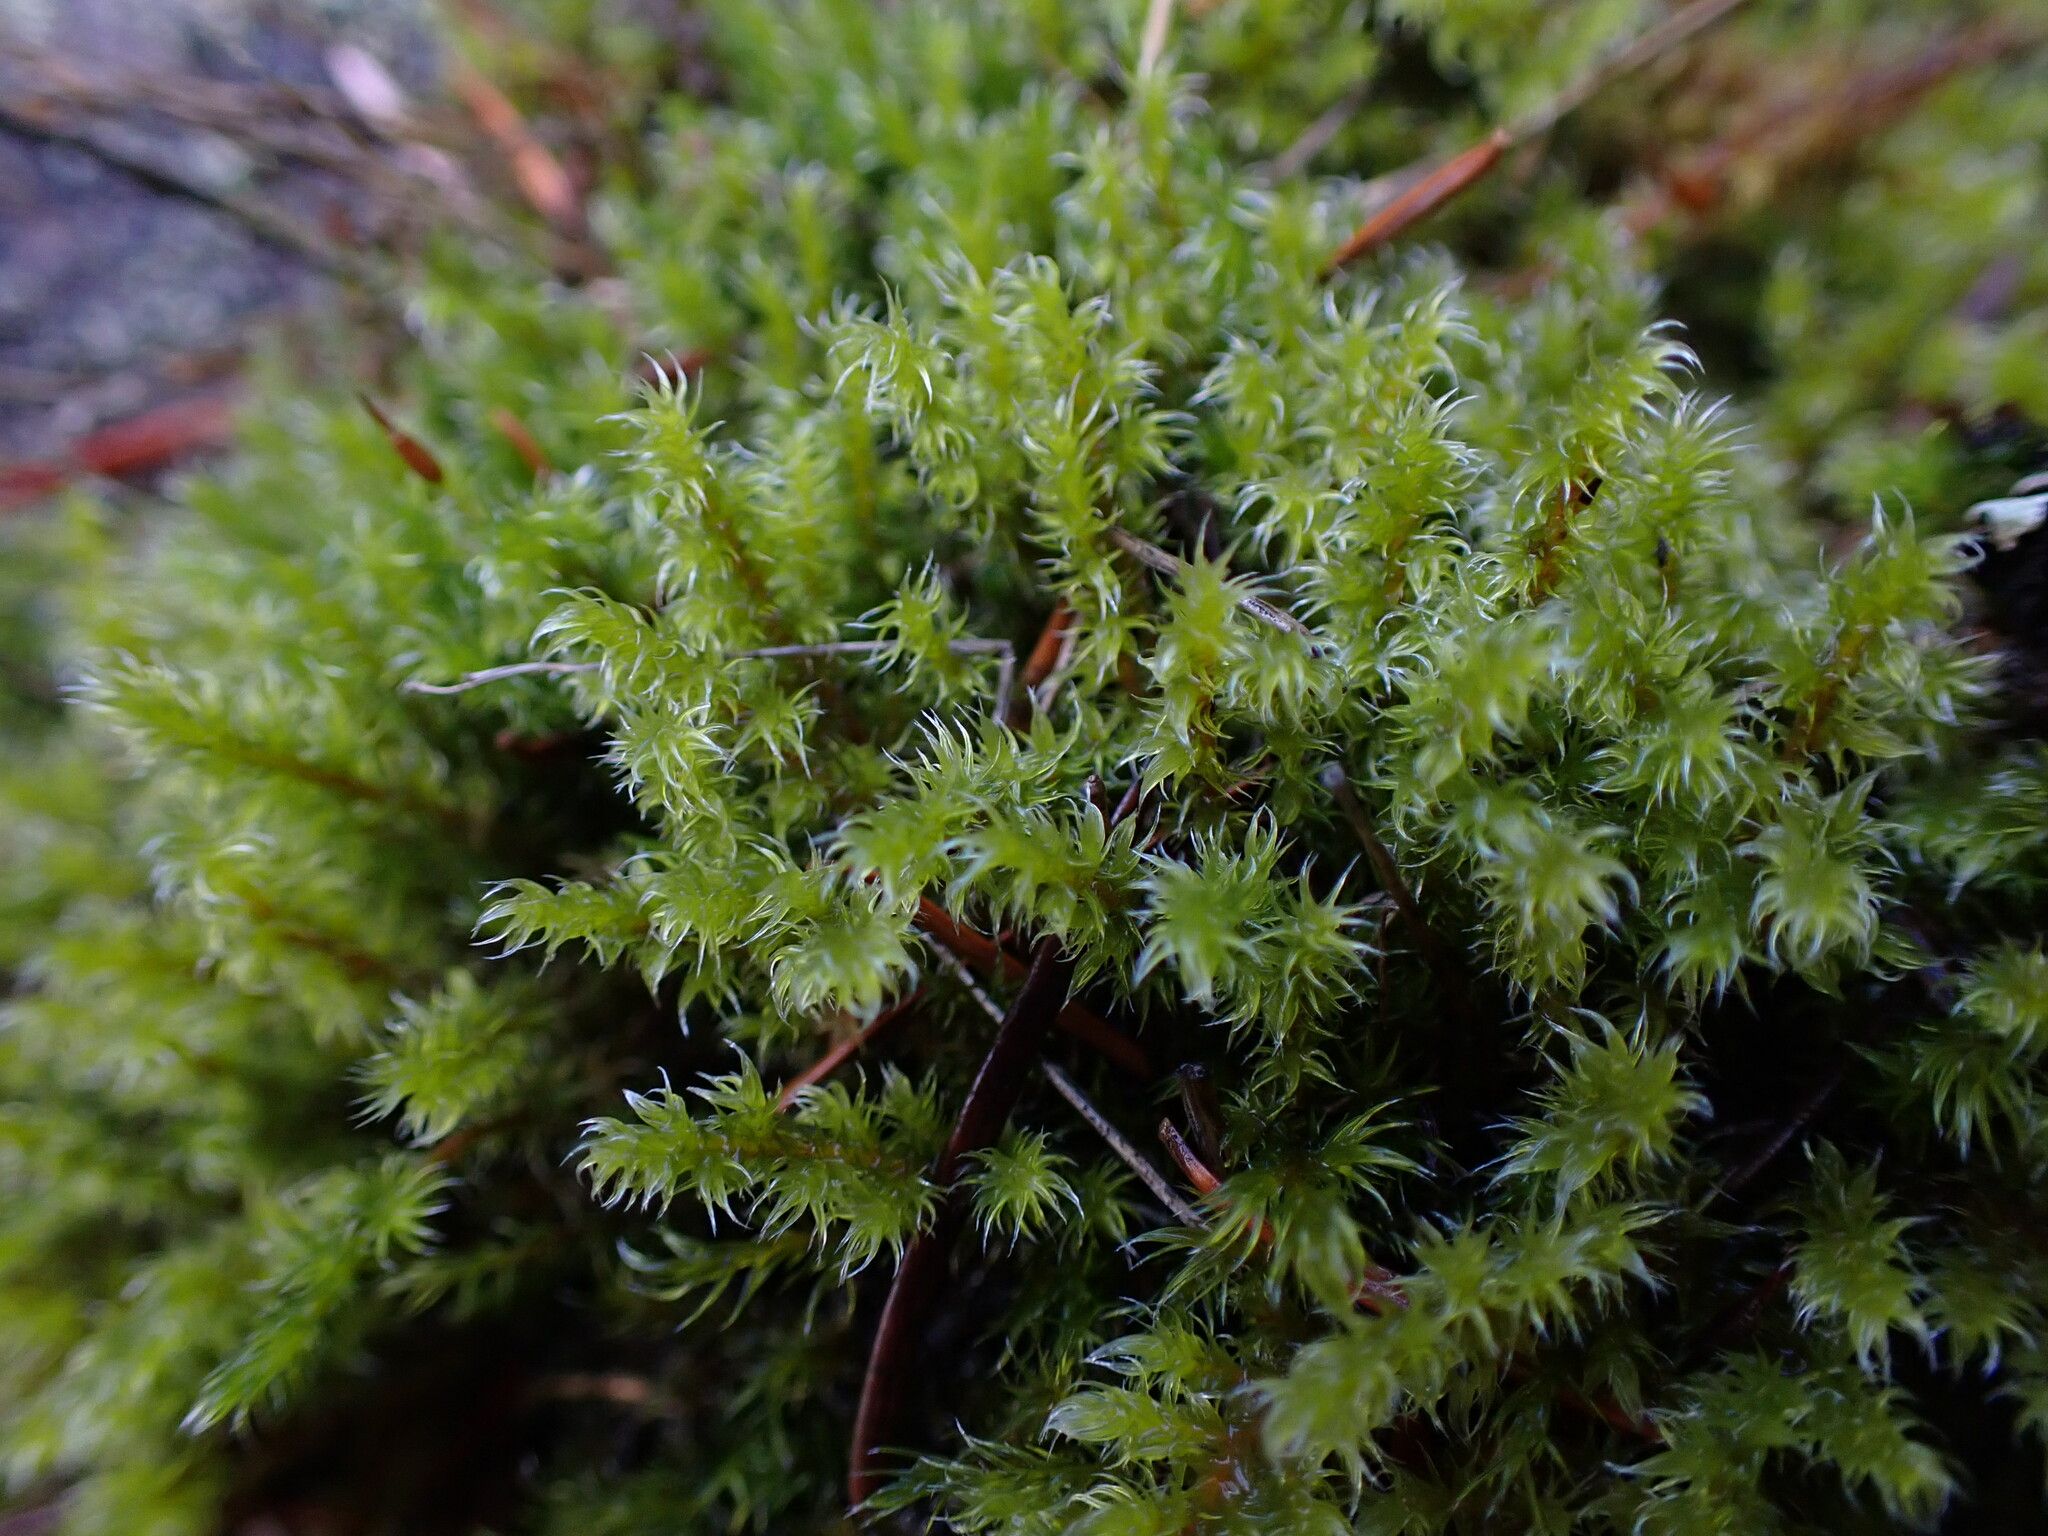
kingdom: Plantae
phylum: Bryophyta
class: Bryopsida
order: Grimmiales
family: Grimmiaceae
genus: Niphotrichum
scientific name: Niphotrichum elongatum
